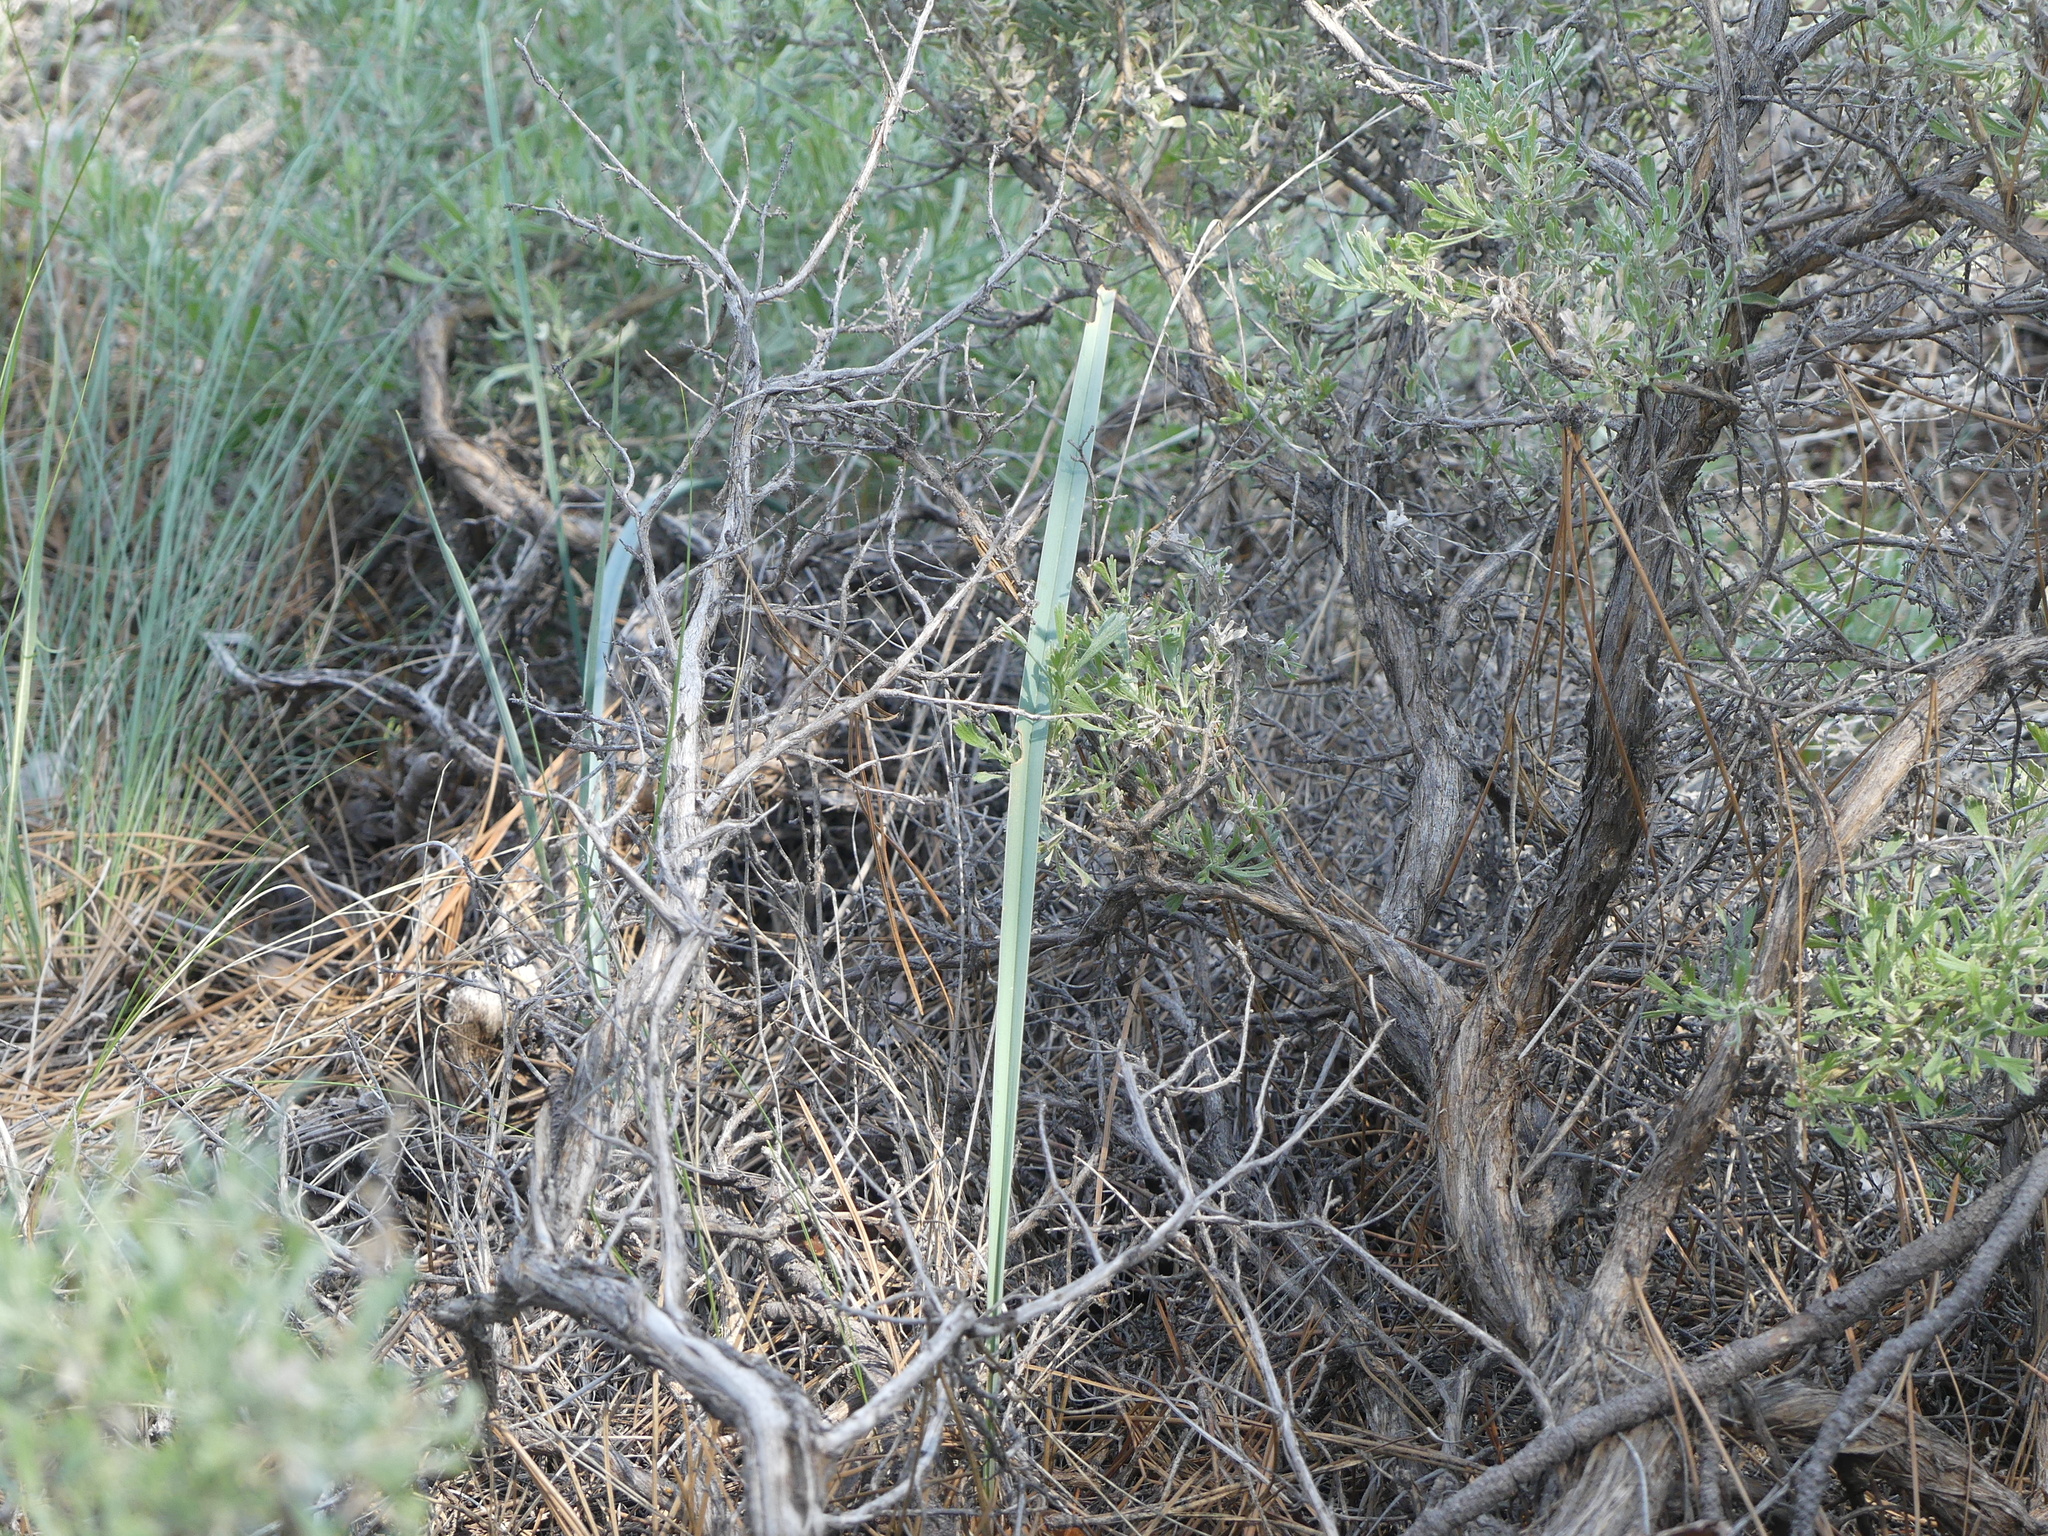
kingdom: Plantae
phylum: Tracheophyta
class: Liliopsida
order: Liliales
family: Liliaceae
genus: Calochortus
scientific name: Calochortus macrocarpus
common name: Green-band mariposa lily
